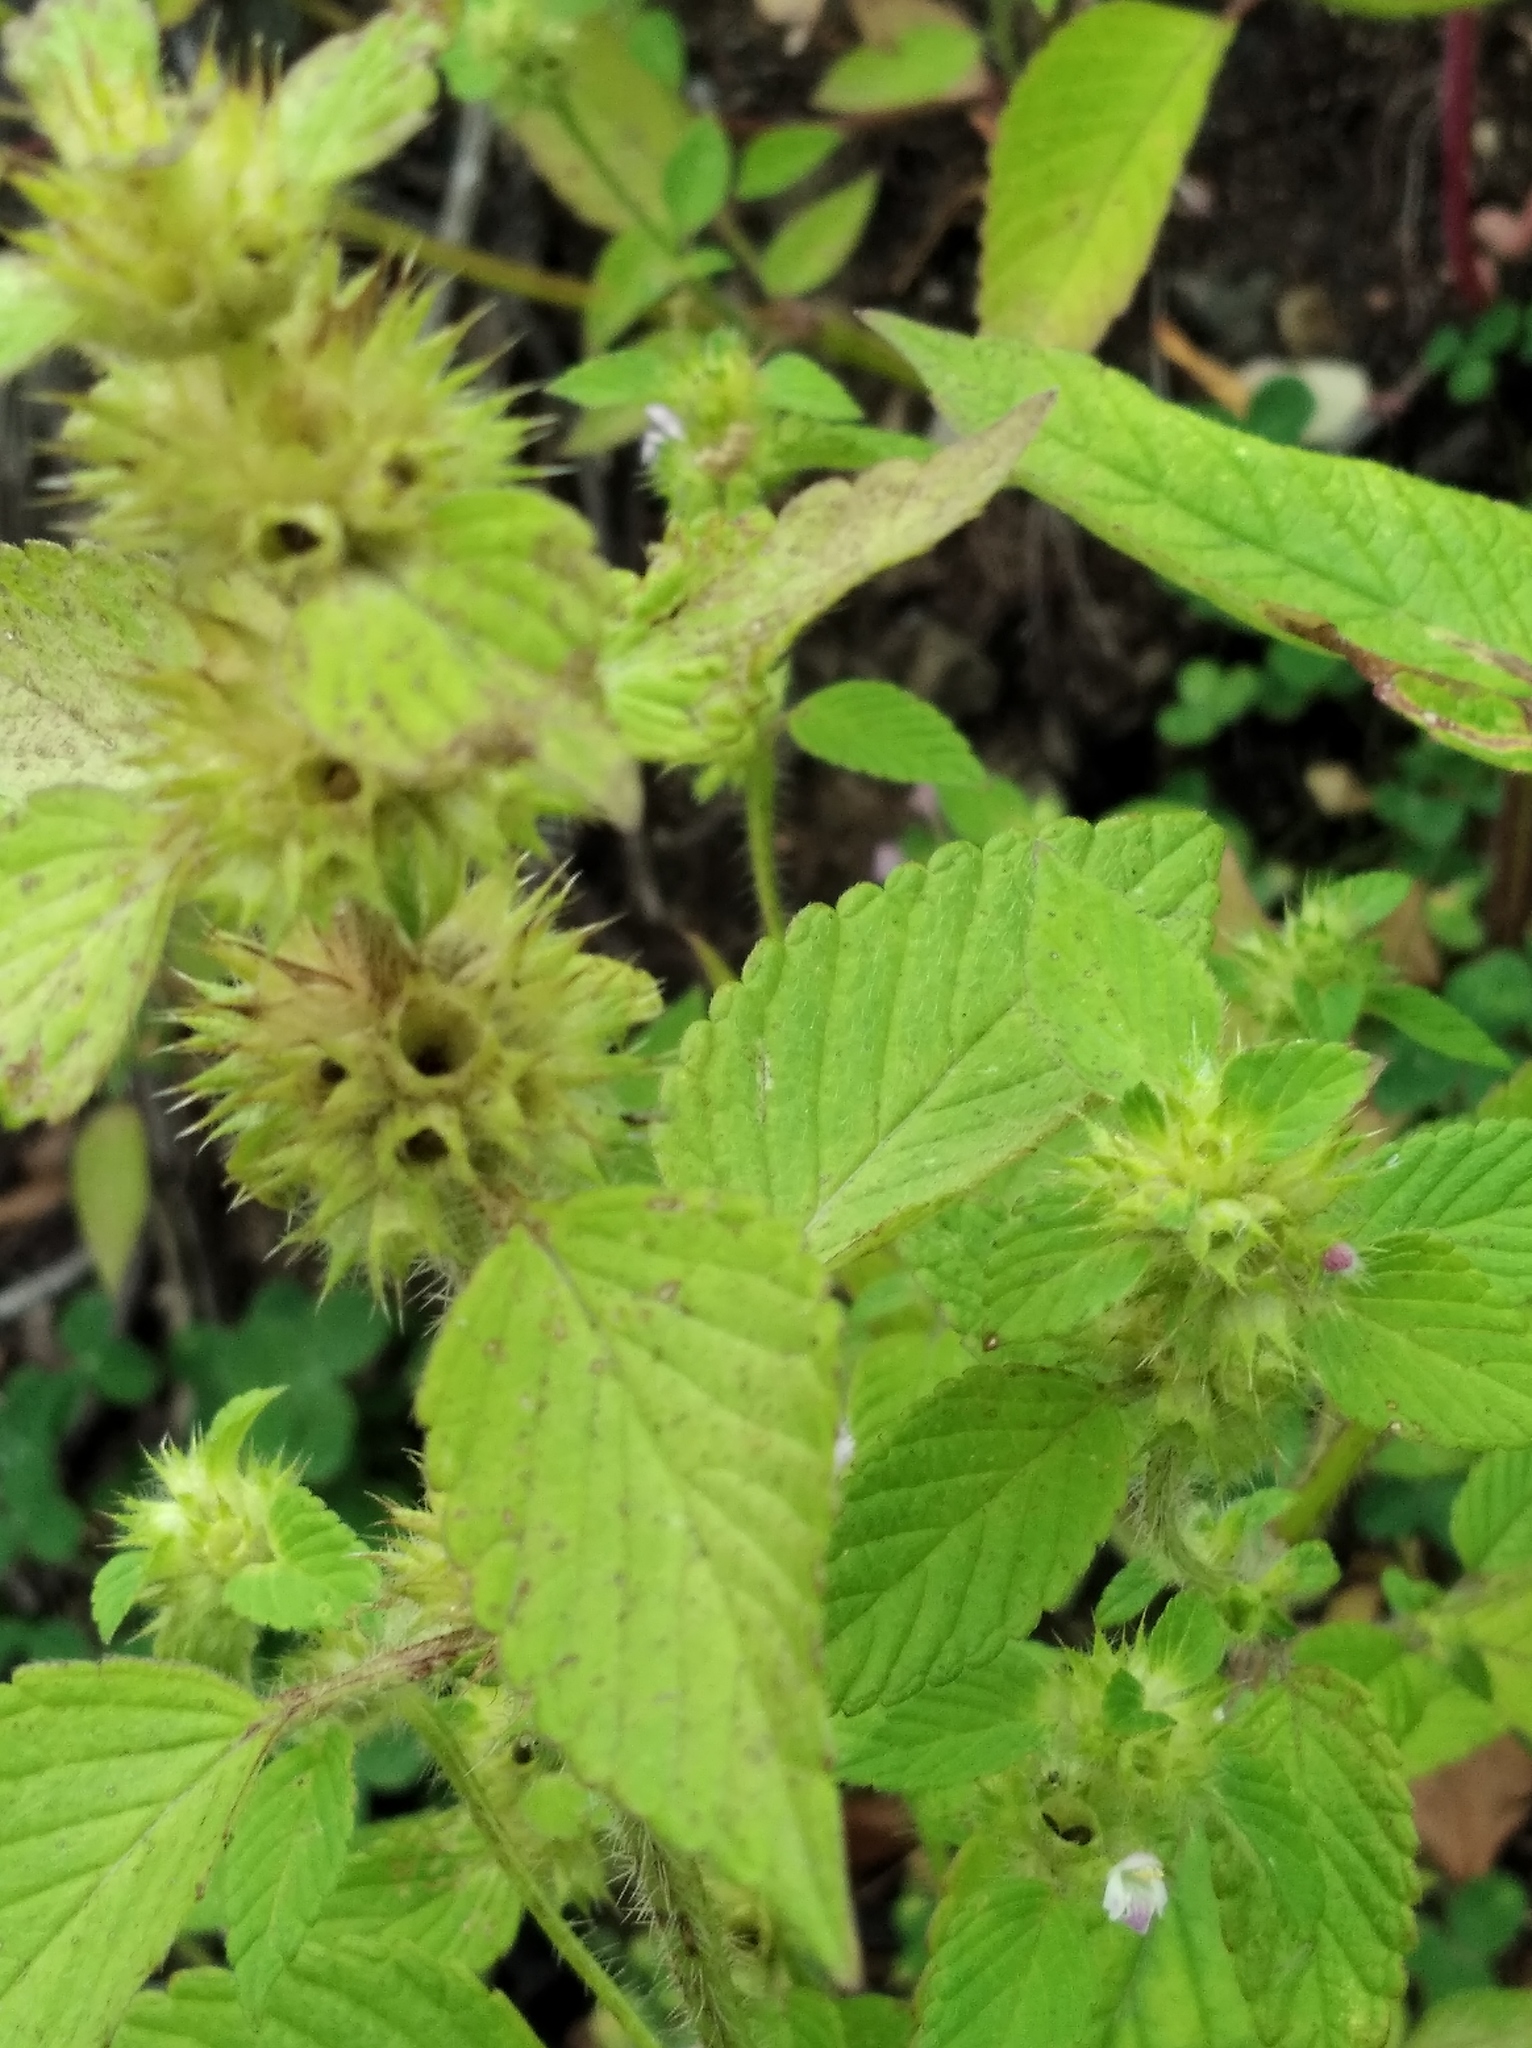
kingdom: Plantae
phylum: Tracheophyta
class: Magnoliopsida
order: Lamiales
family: Lamiaceae
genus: Galeopsis
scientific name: Galeopsis bifida
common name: Bifid hemp-nettle
